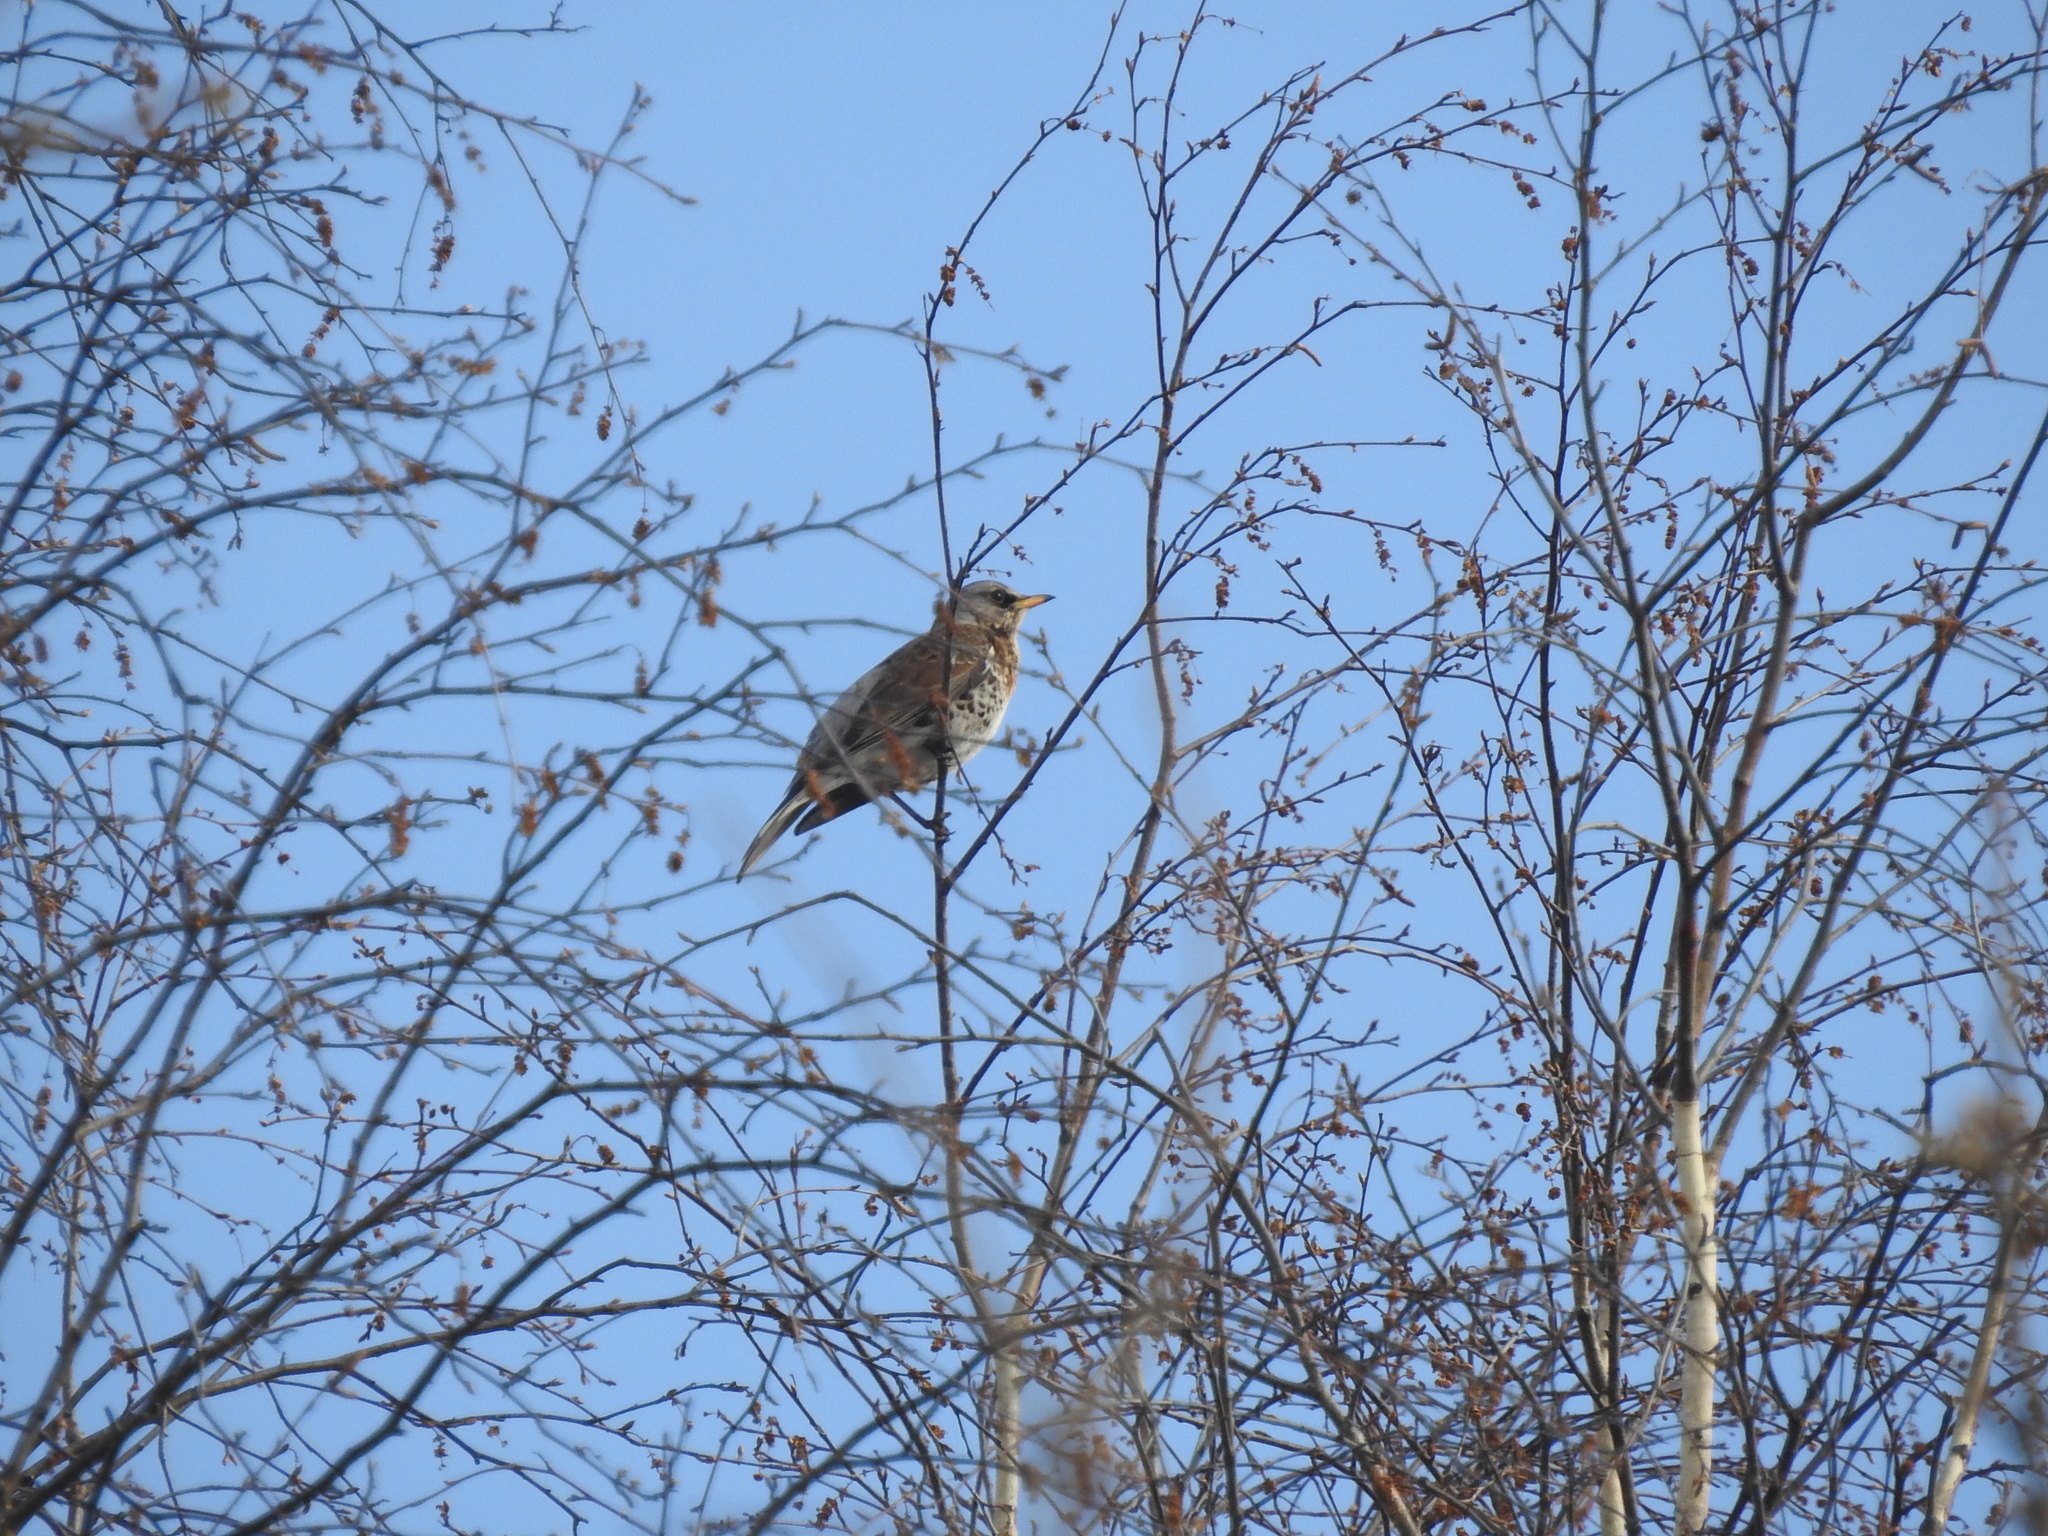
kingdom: Animalia
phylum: Chordata
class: Aves
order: Passeriformes
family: Turdidae
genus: Turdus
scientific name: Turdus pilaris
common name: Fieldfare
